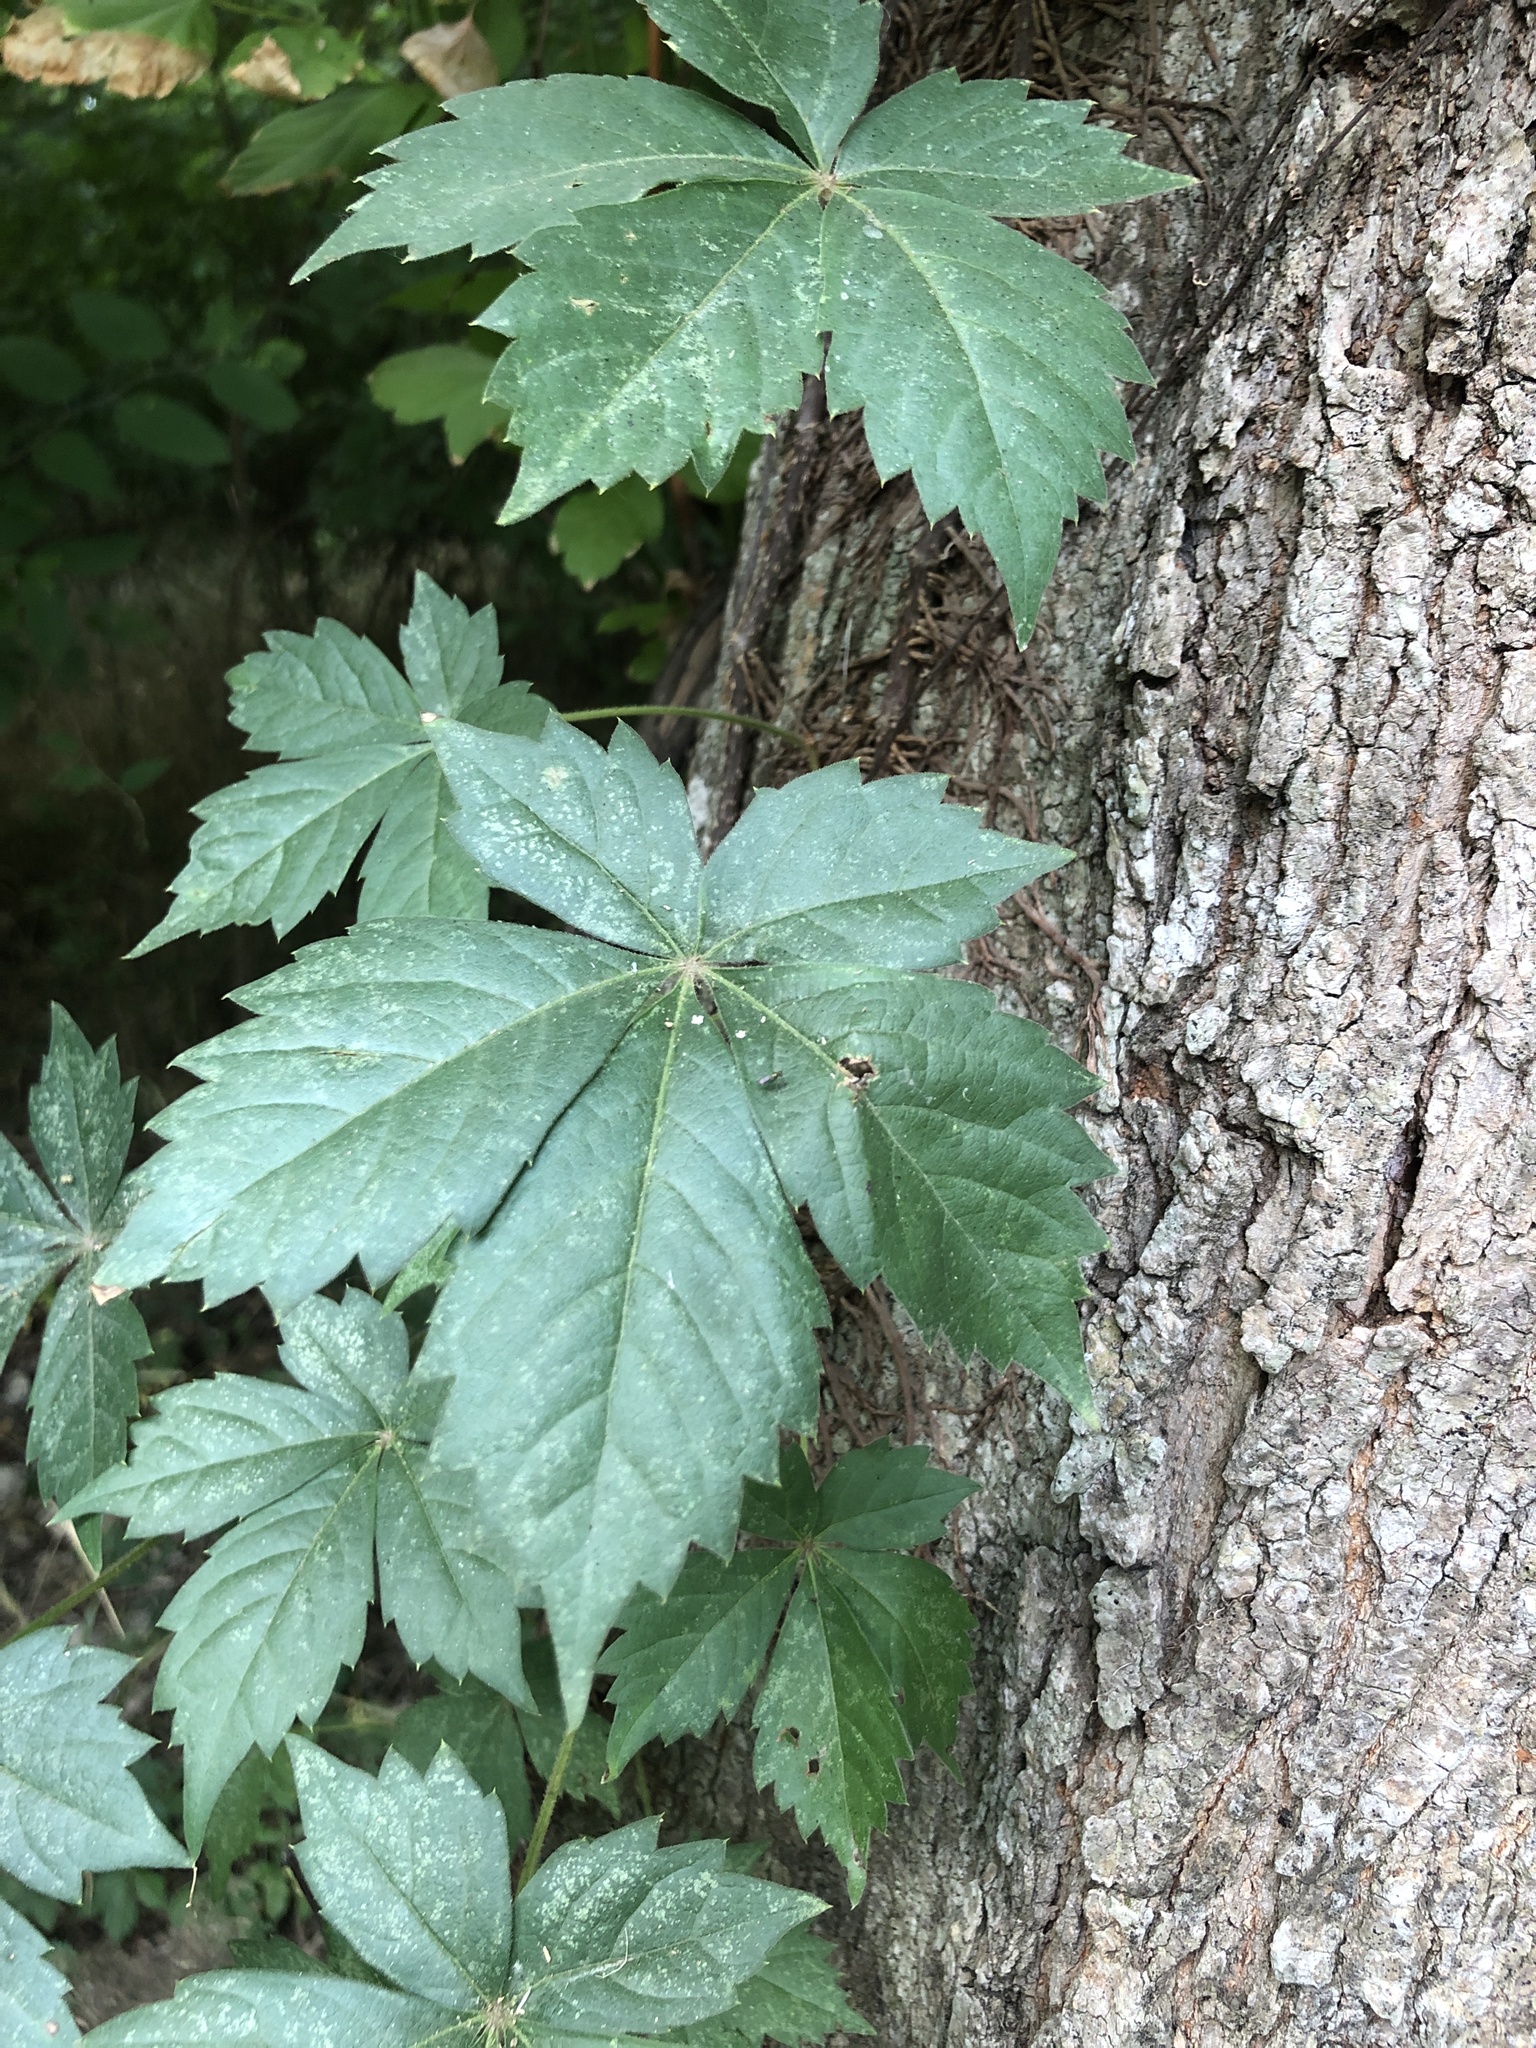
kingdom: Plantae
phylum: Tracheophyta
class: Magnoliopsida
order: Vitales
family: Vitaceae
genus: Parthenocissus
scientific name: Parthenocissus quinquefolia
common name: Virginia-creeper
